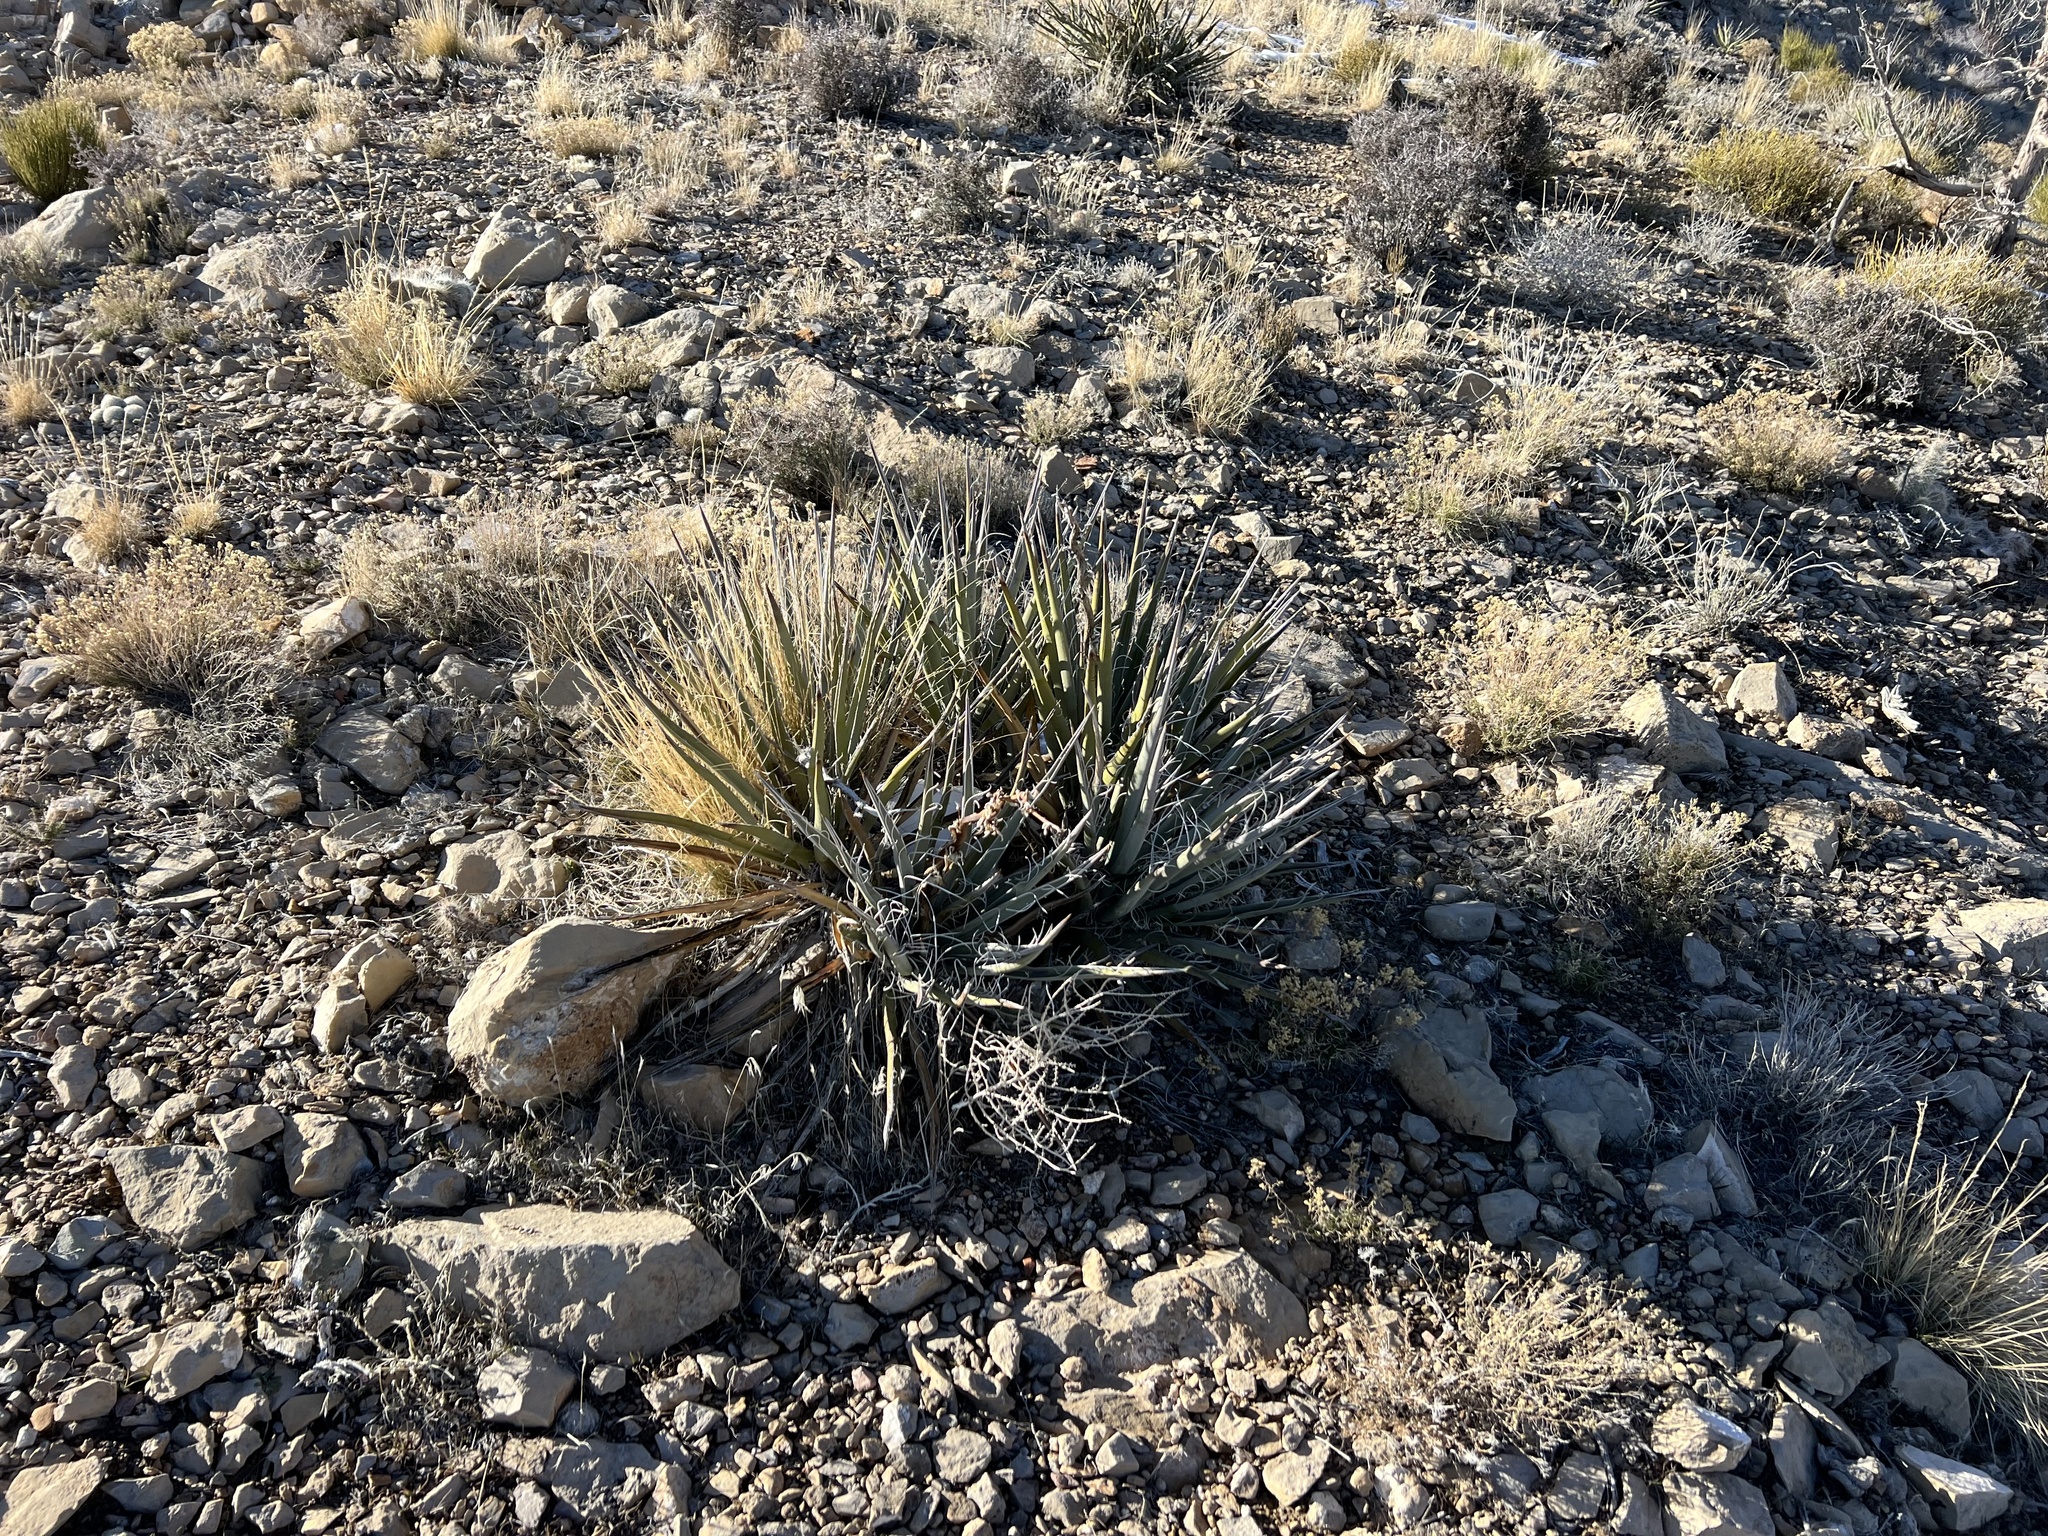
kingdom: Plantae
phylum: Tracheophyta
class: Liliopsida
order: Asparagales
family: Asparagaceae
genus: Yucca
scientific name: Yucca baccata
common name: Banana yucca
